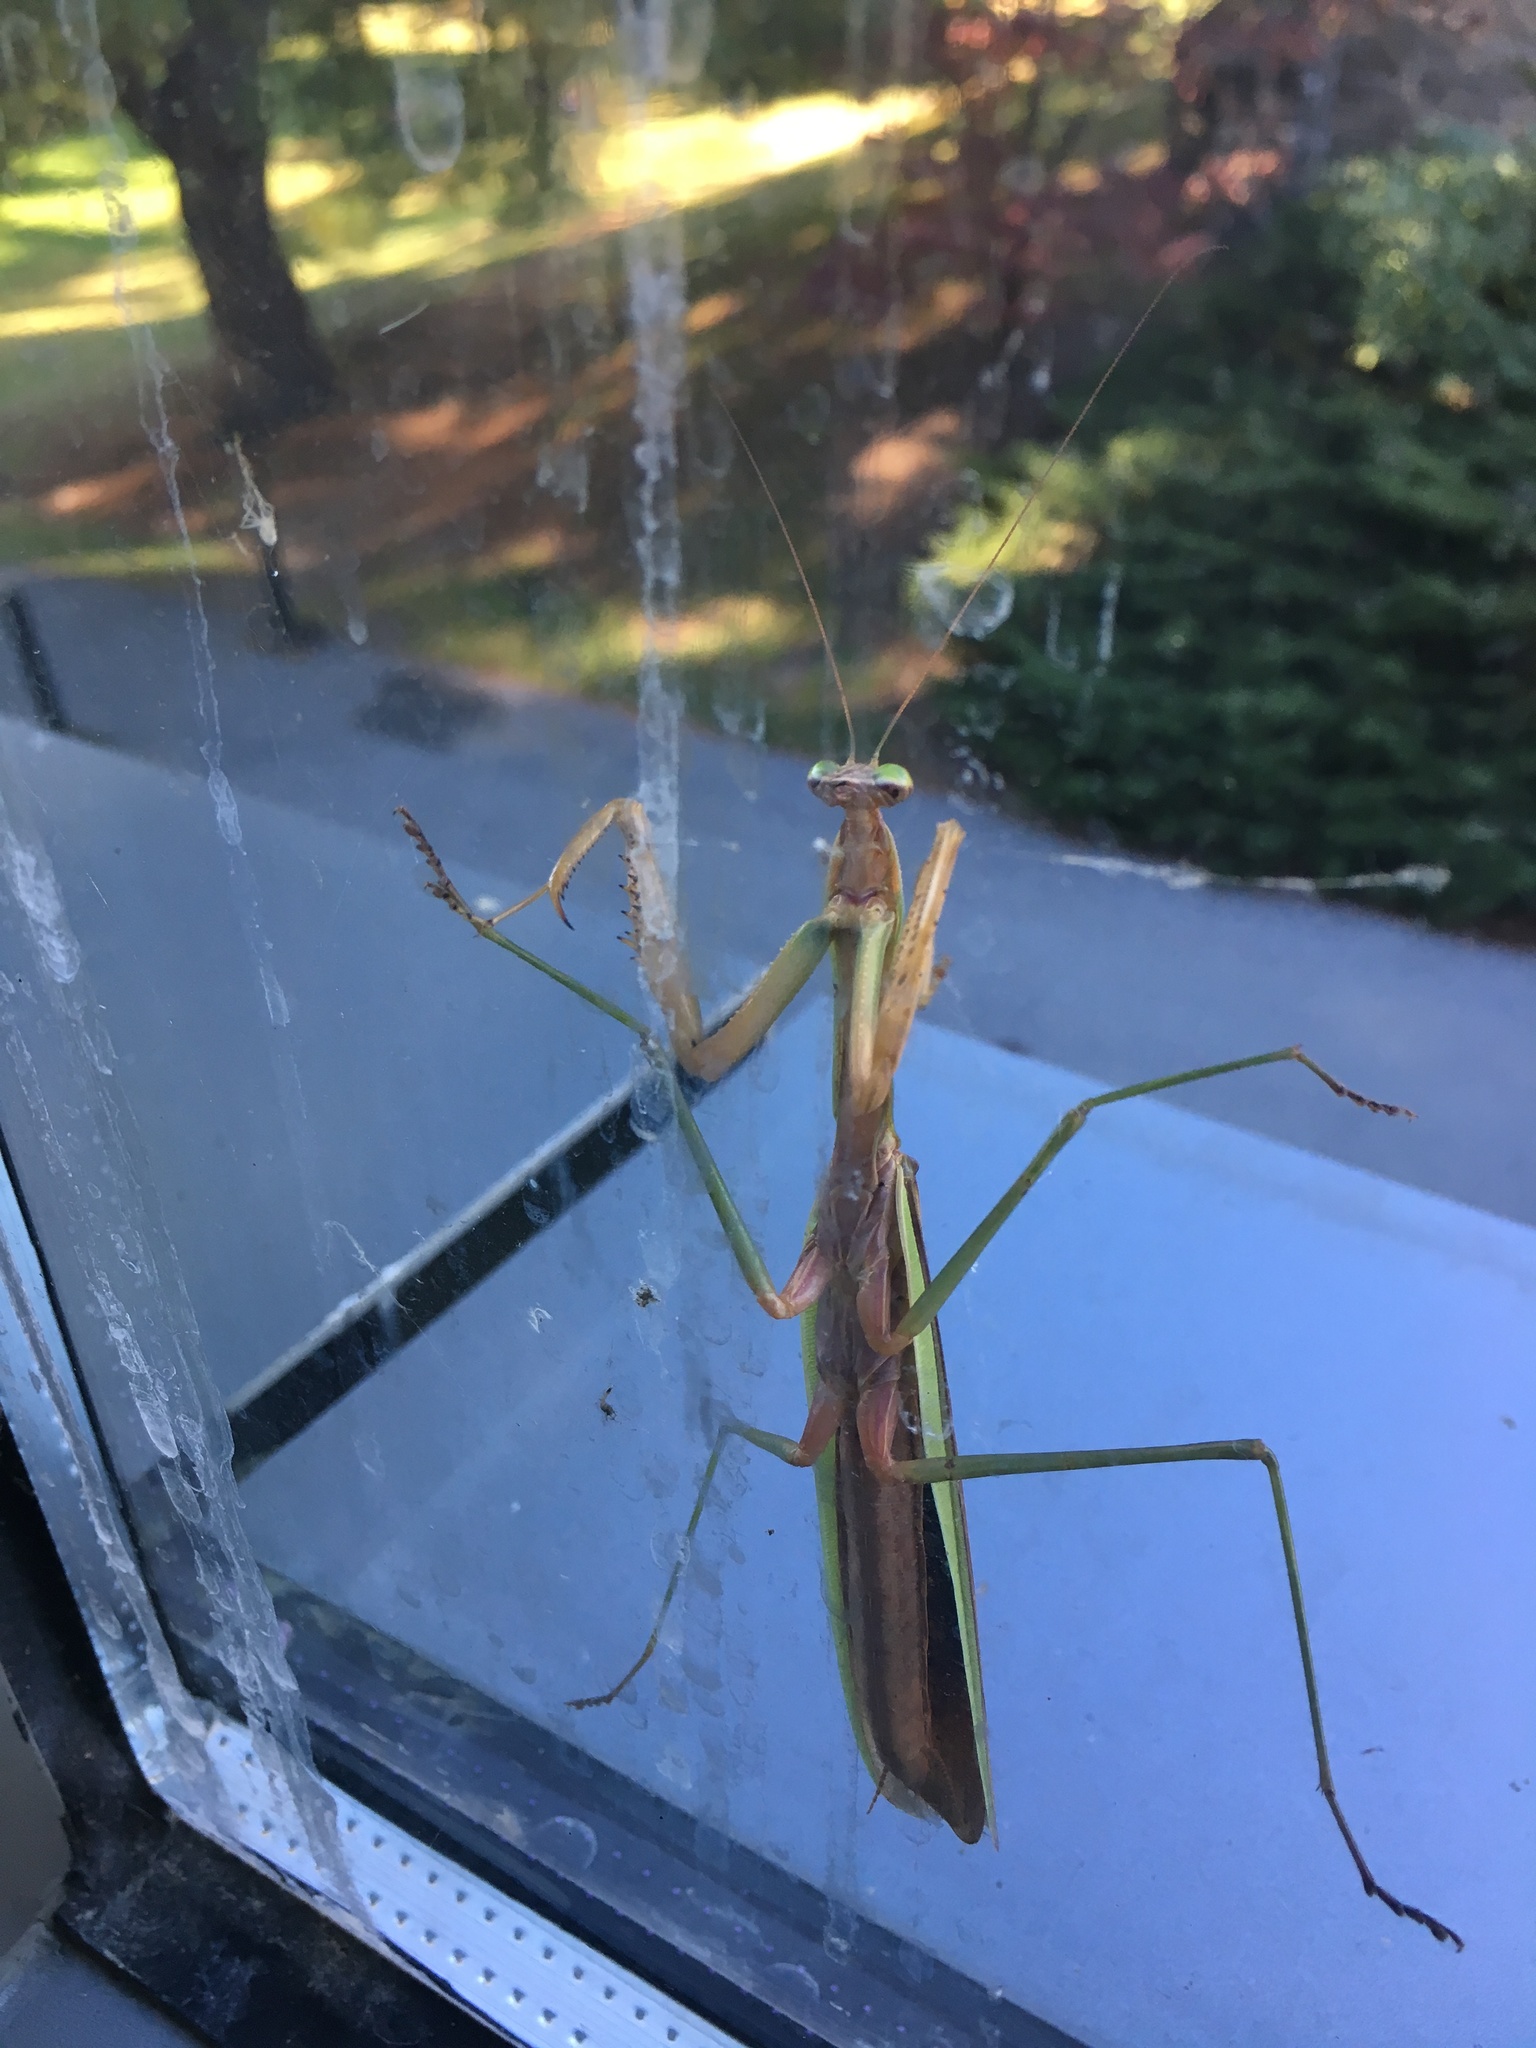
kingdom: Animalia
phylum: Arthropoda
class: Insecta
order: Mantodea
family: Mantidae
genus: Tenodera
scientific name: Tenodera sinensis
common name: Chinese mantis
